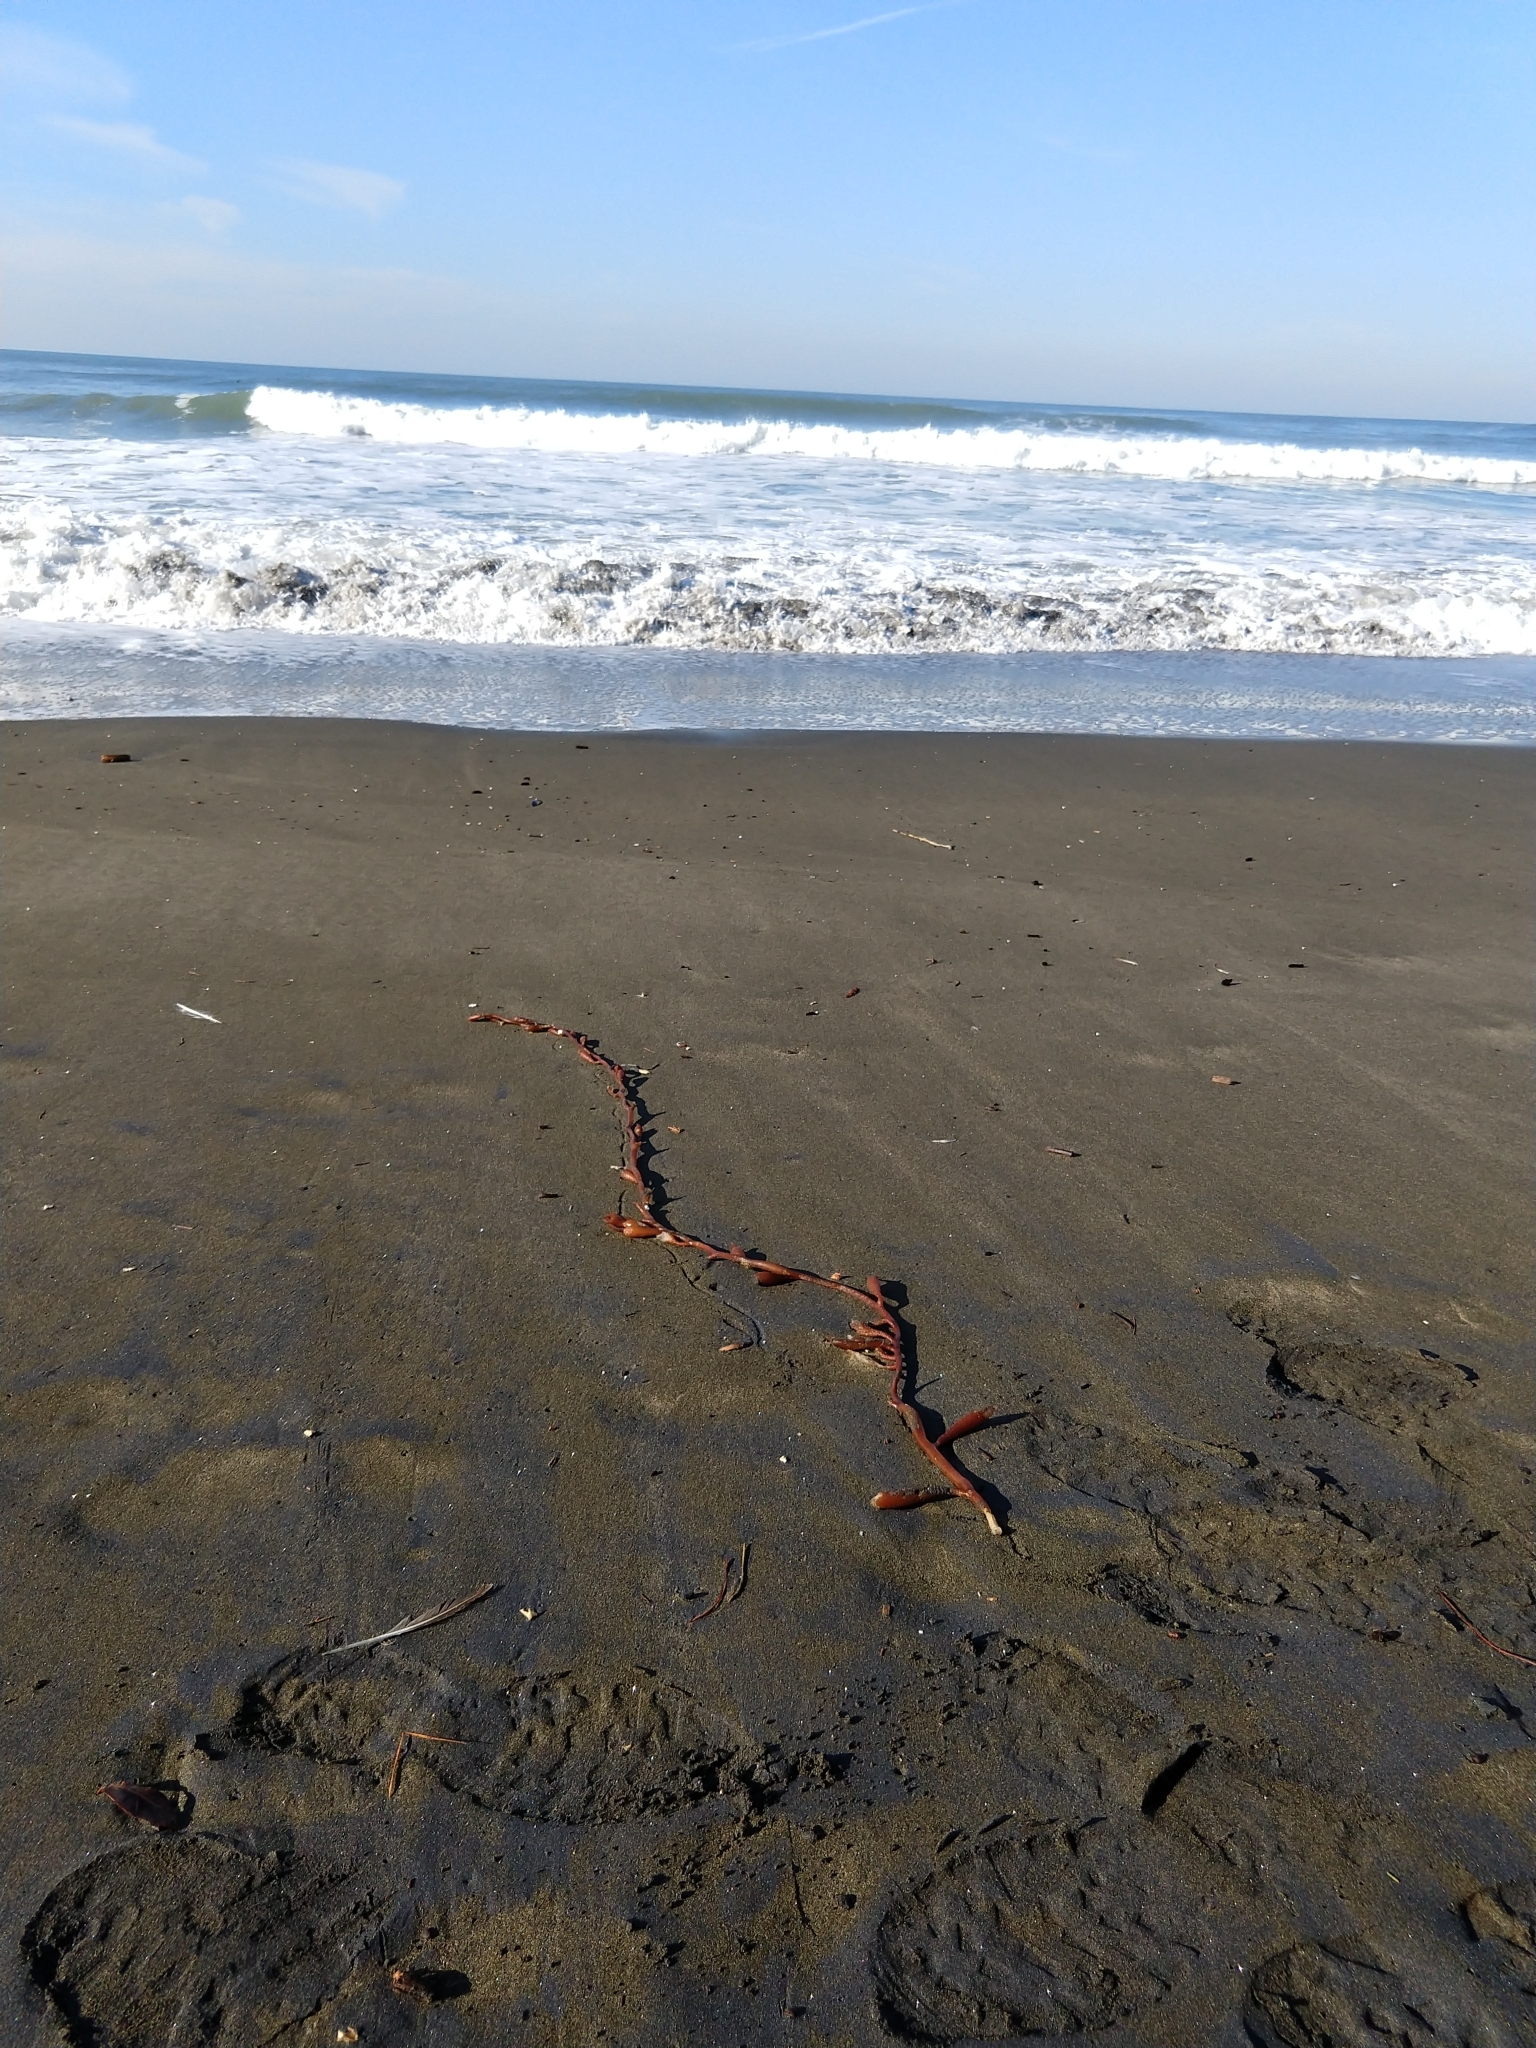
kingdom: Chromista
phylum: Ochrophyta
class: Phaeophyceae
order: Laminariales
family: Laminariaceae
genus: Macrocystis
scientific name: Macrocystis pyrifera
